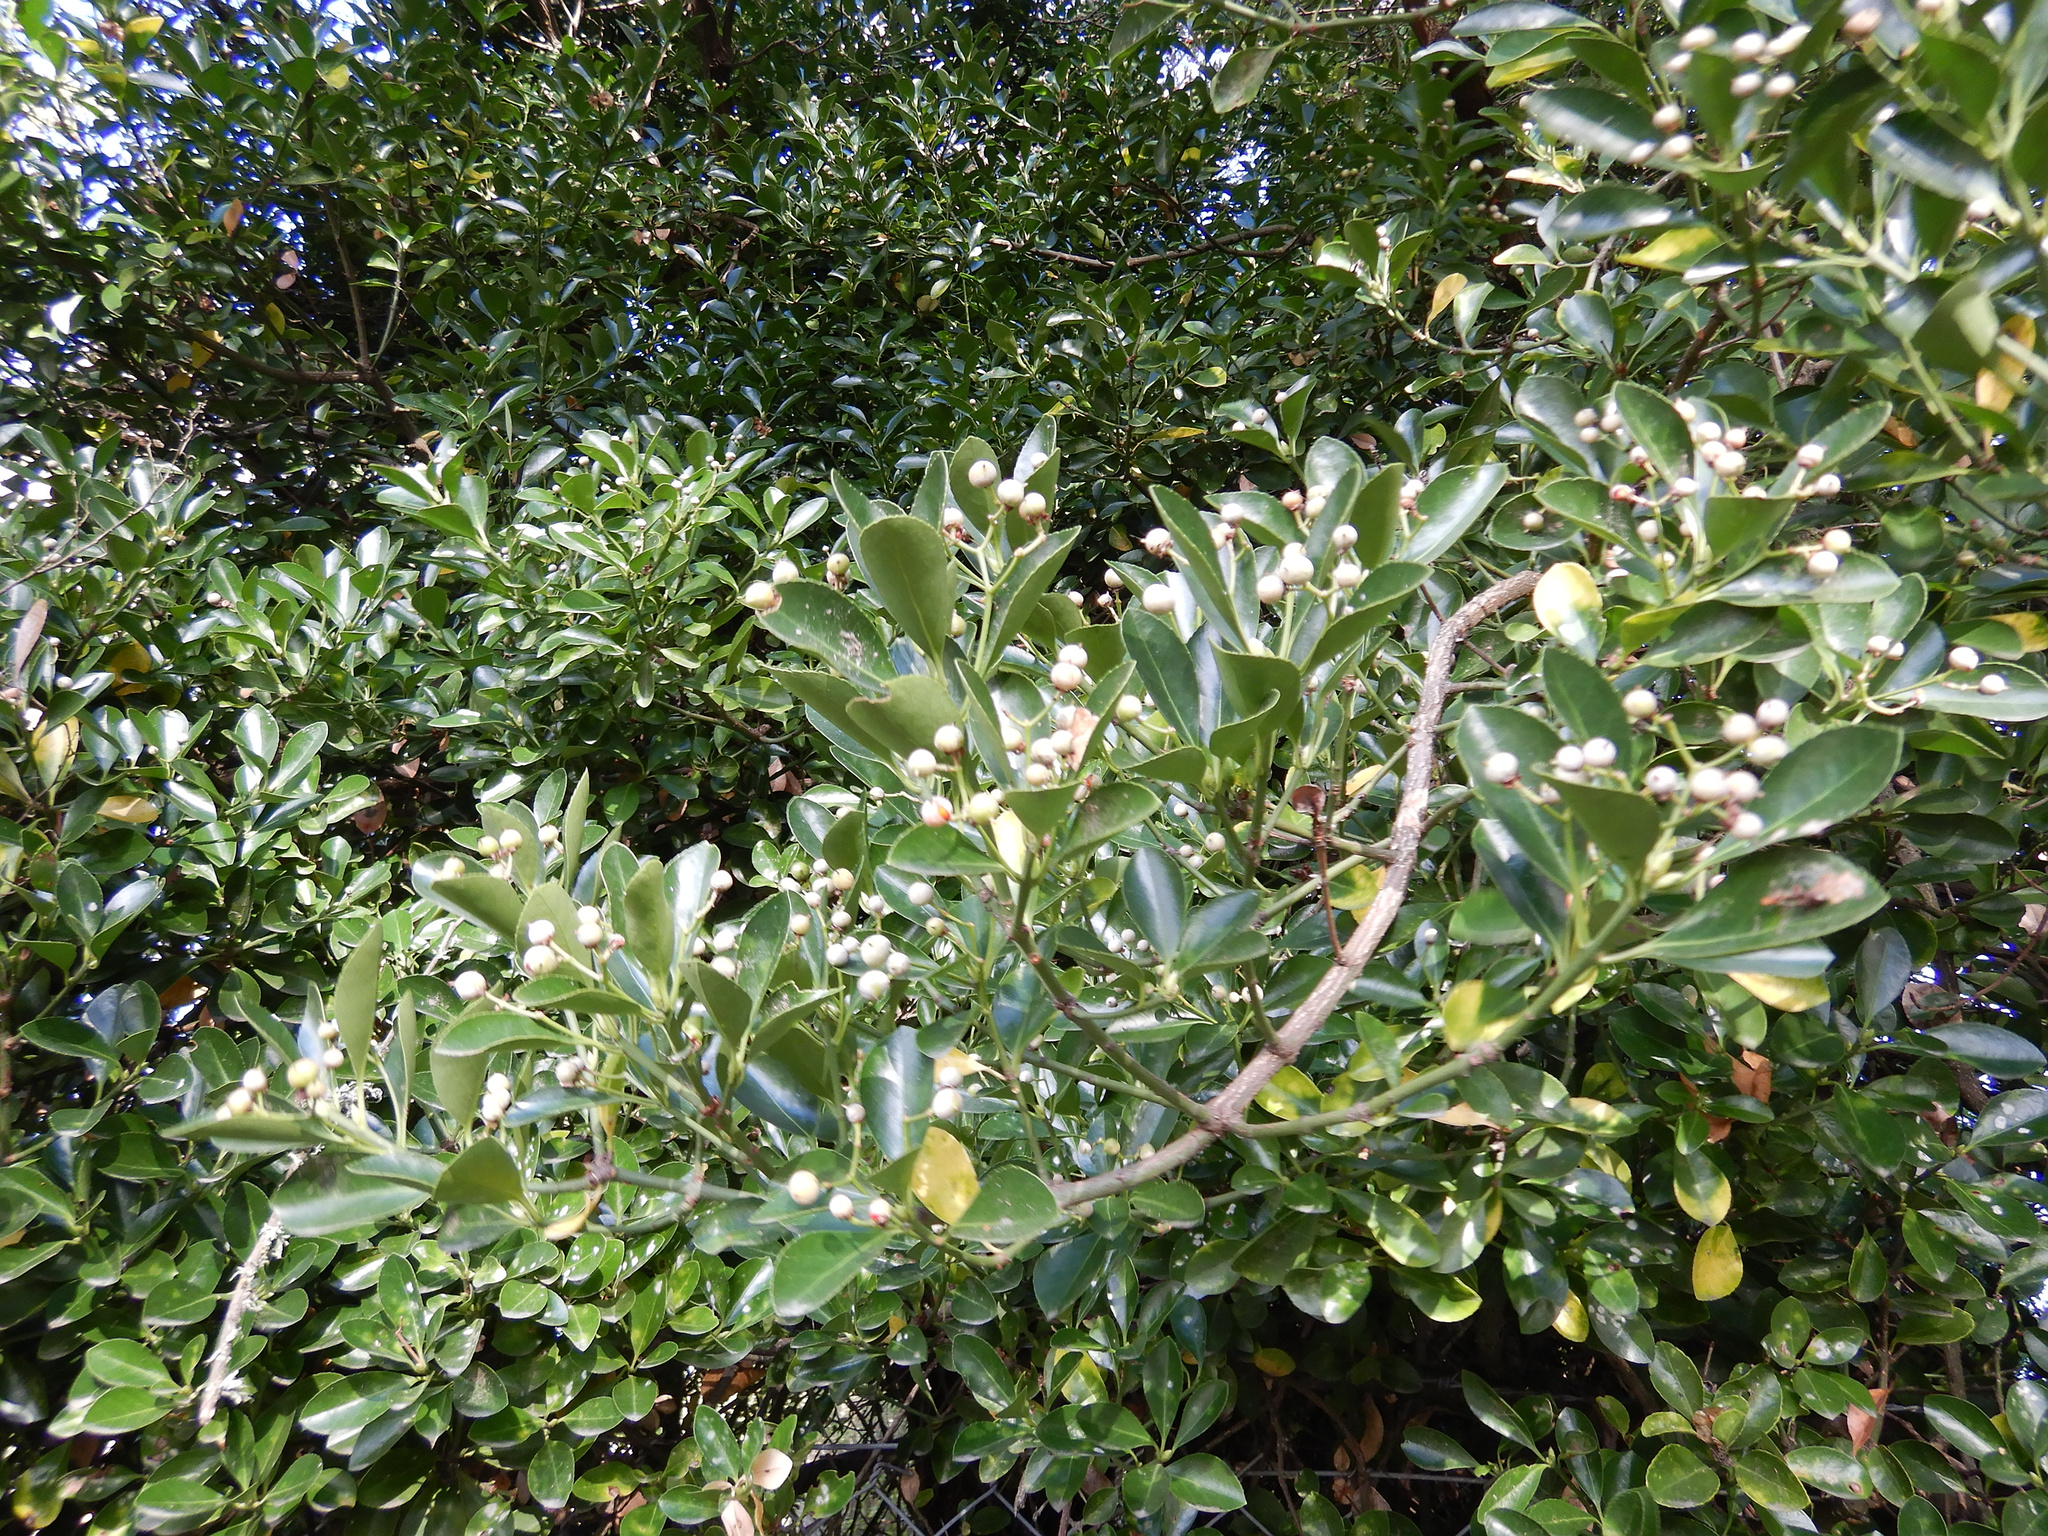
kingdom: Plantae
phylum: Tracheophyta
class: Magnoliopsida
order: Celastrales
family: Celastraceae
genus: Euonymus
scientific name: Euonymus japonicus
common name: Japanese spindletree
